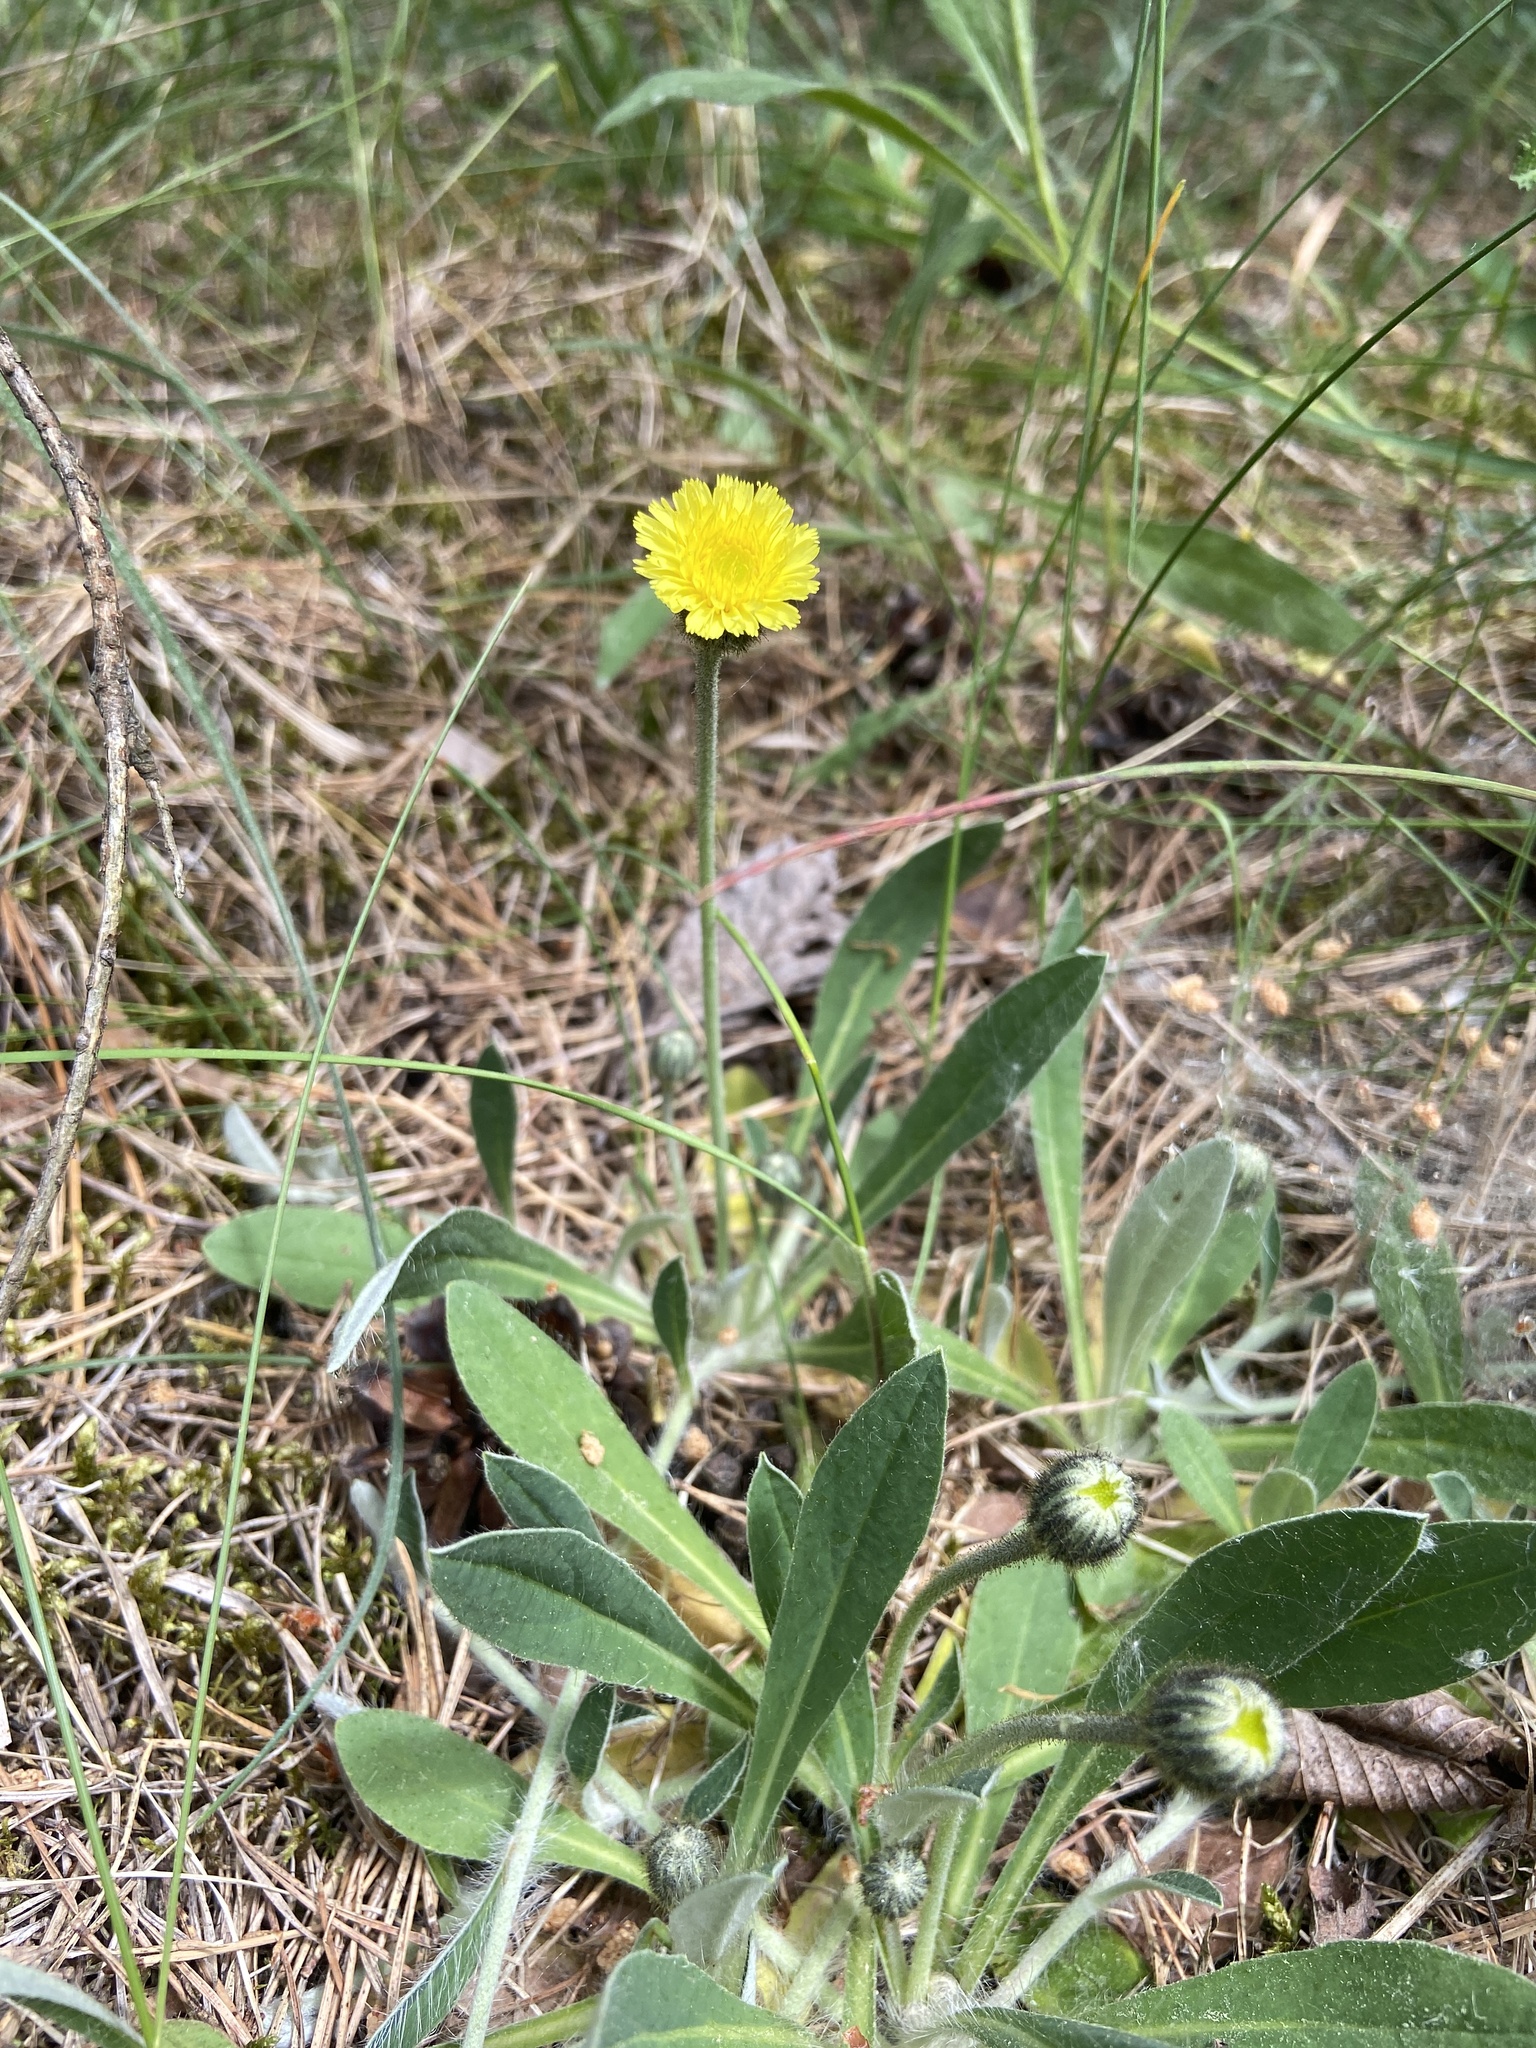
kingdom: Plantae
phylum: Tracheophyta
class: Magnoliopsida
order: Asterales
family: Asteraceae
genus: Pilosella
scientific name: Pilosella officinarum
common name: Mouse-ear hawkweed
